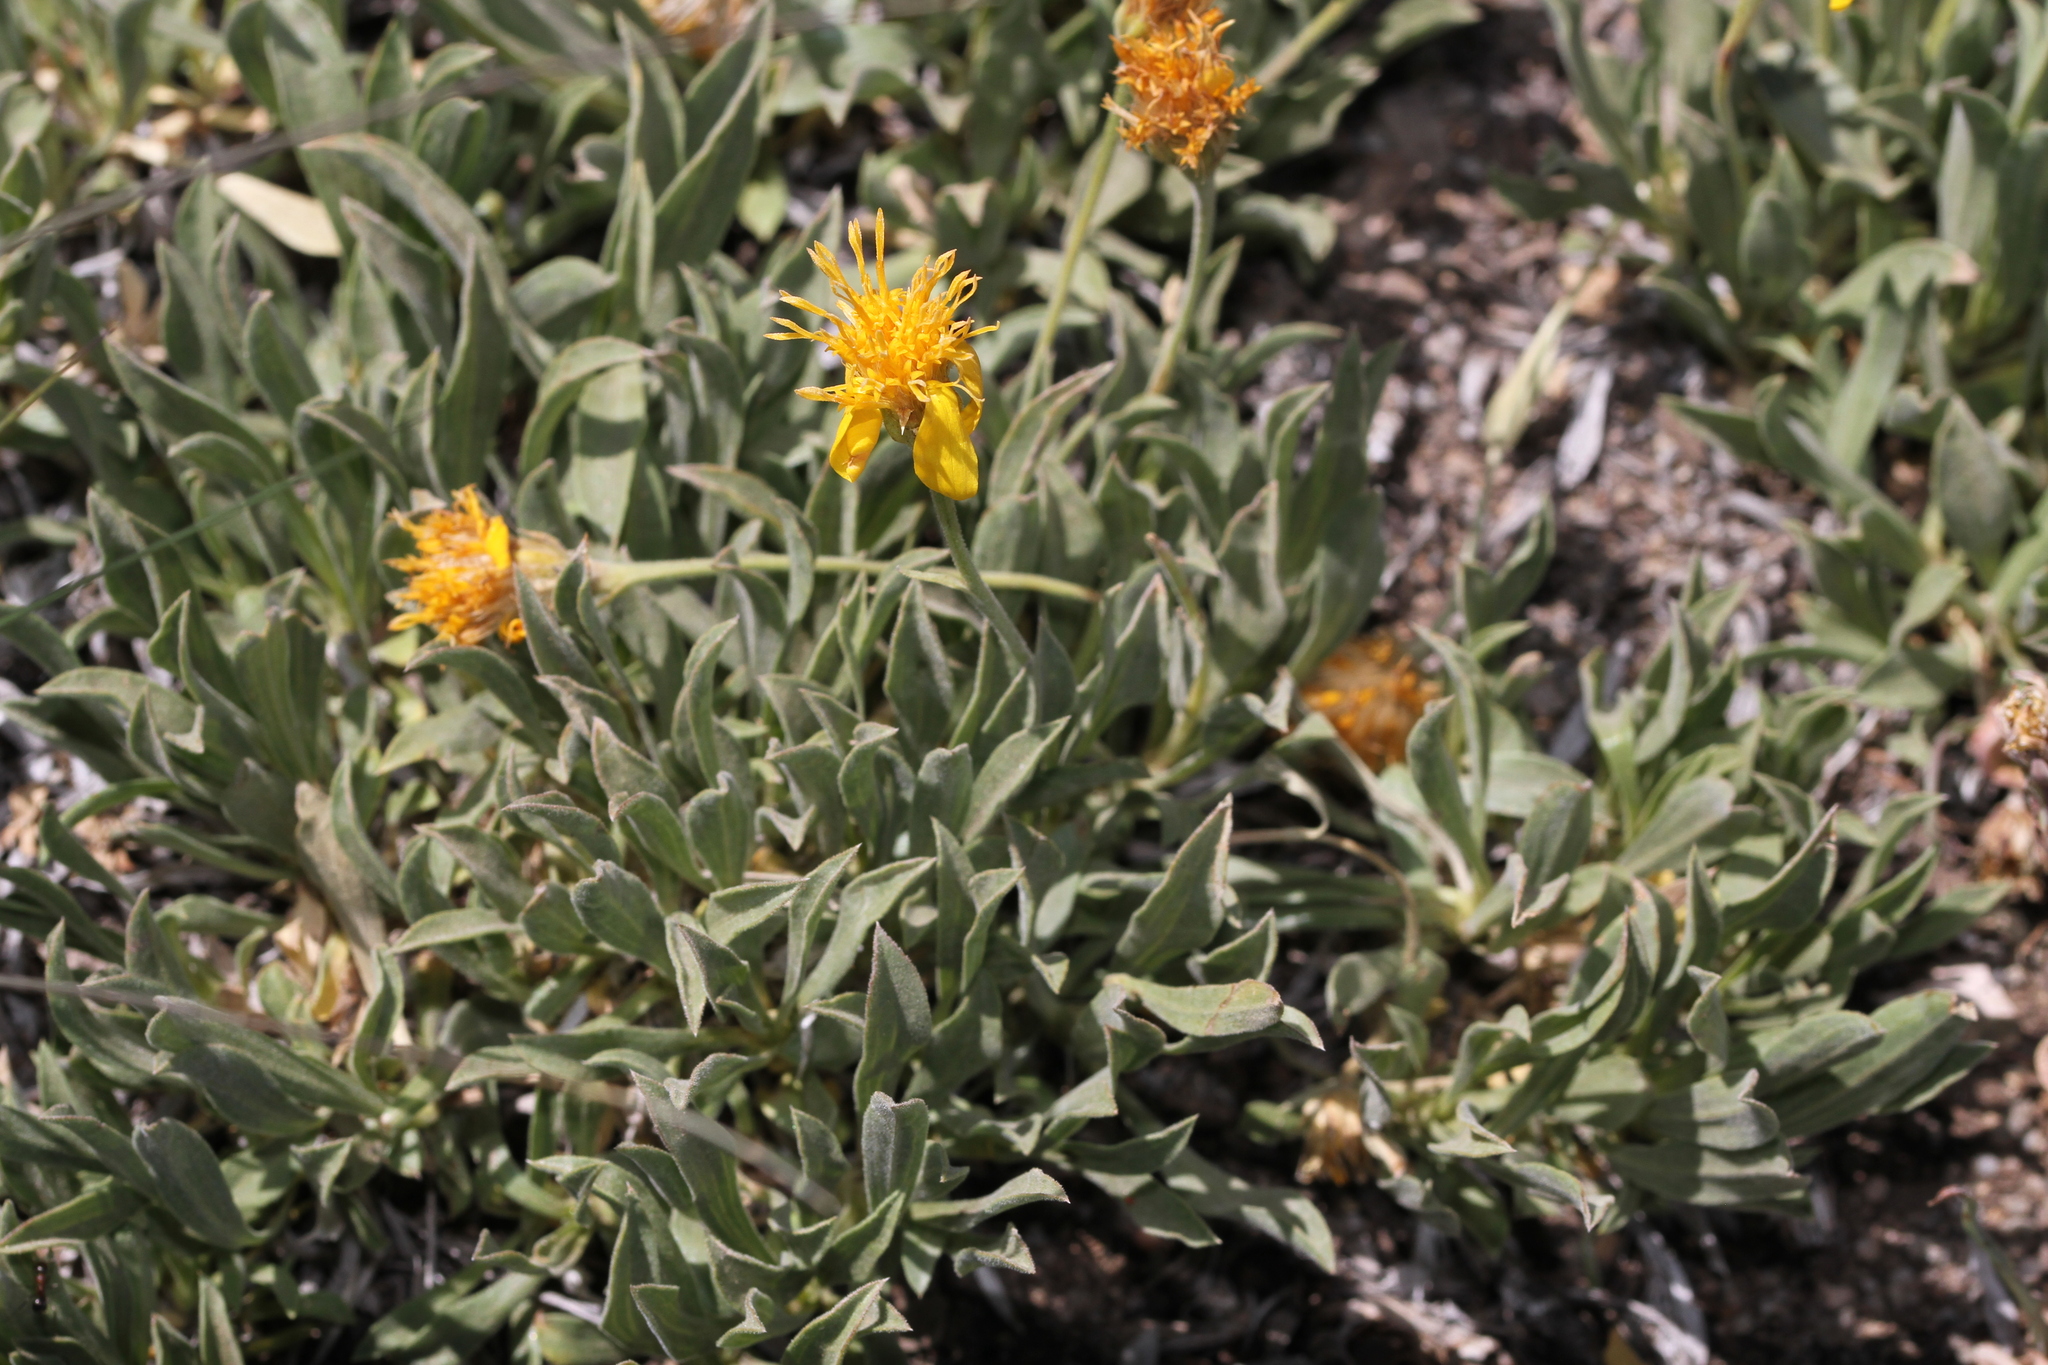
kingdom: Plantae
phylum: Tracheophyta
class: Magnoliopsida
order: Asterales
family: Asteraceae
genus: Stenotus
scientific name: Stenotus acaulis
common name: Stemless goldenweed
